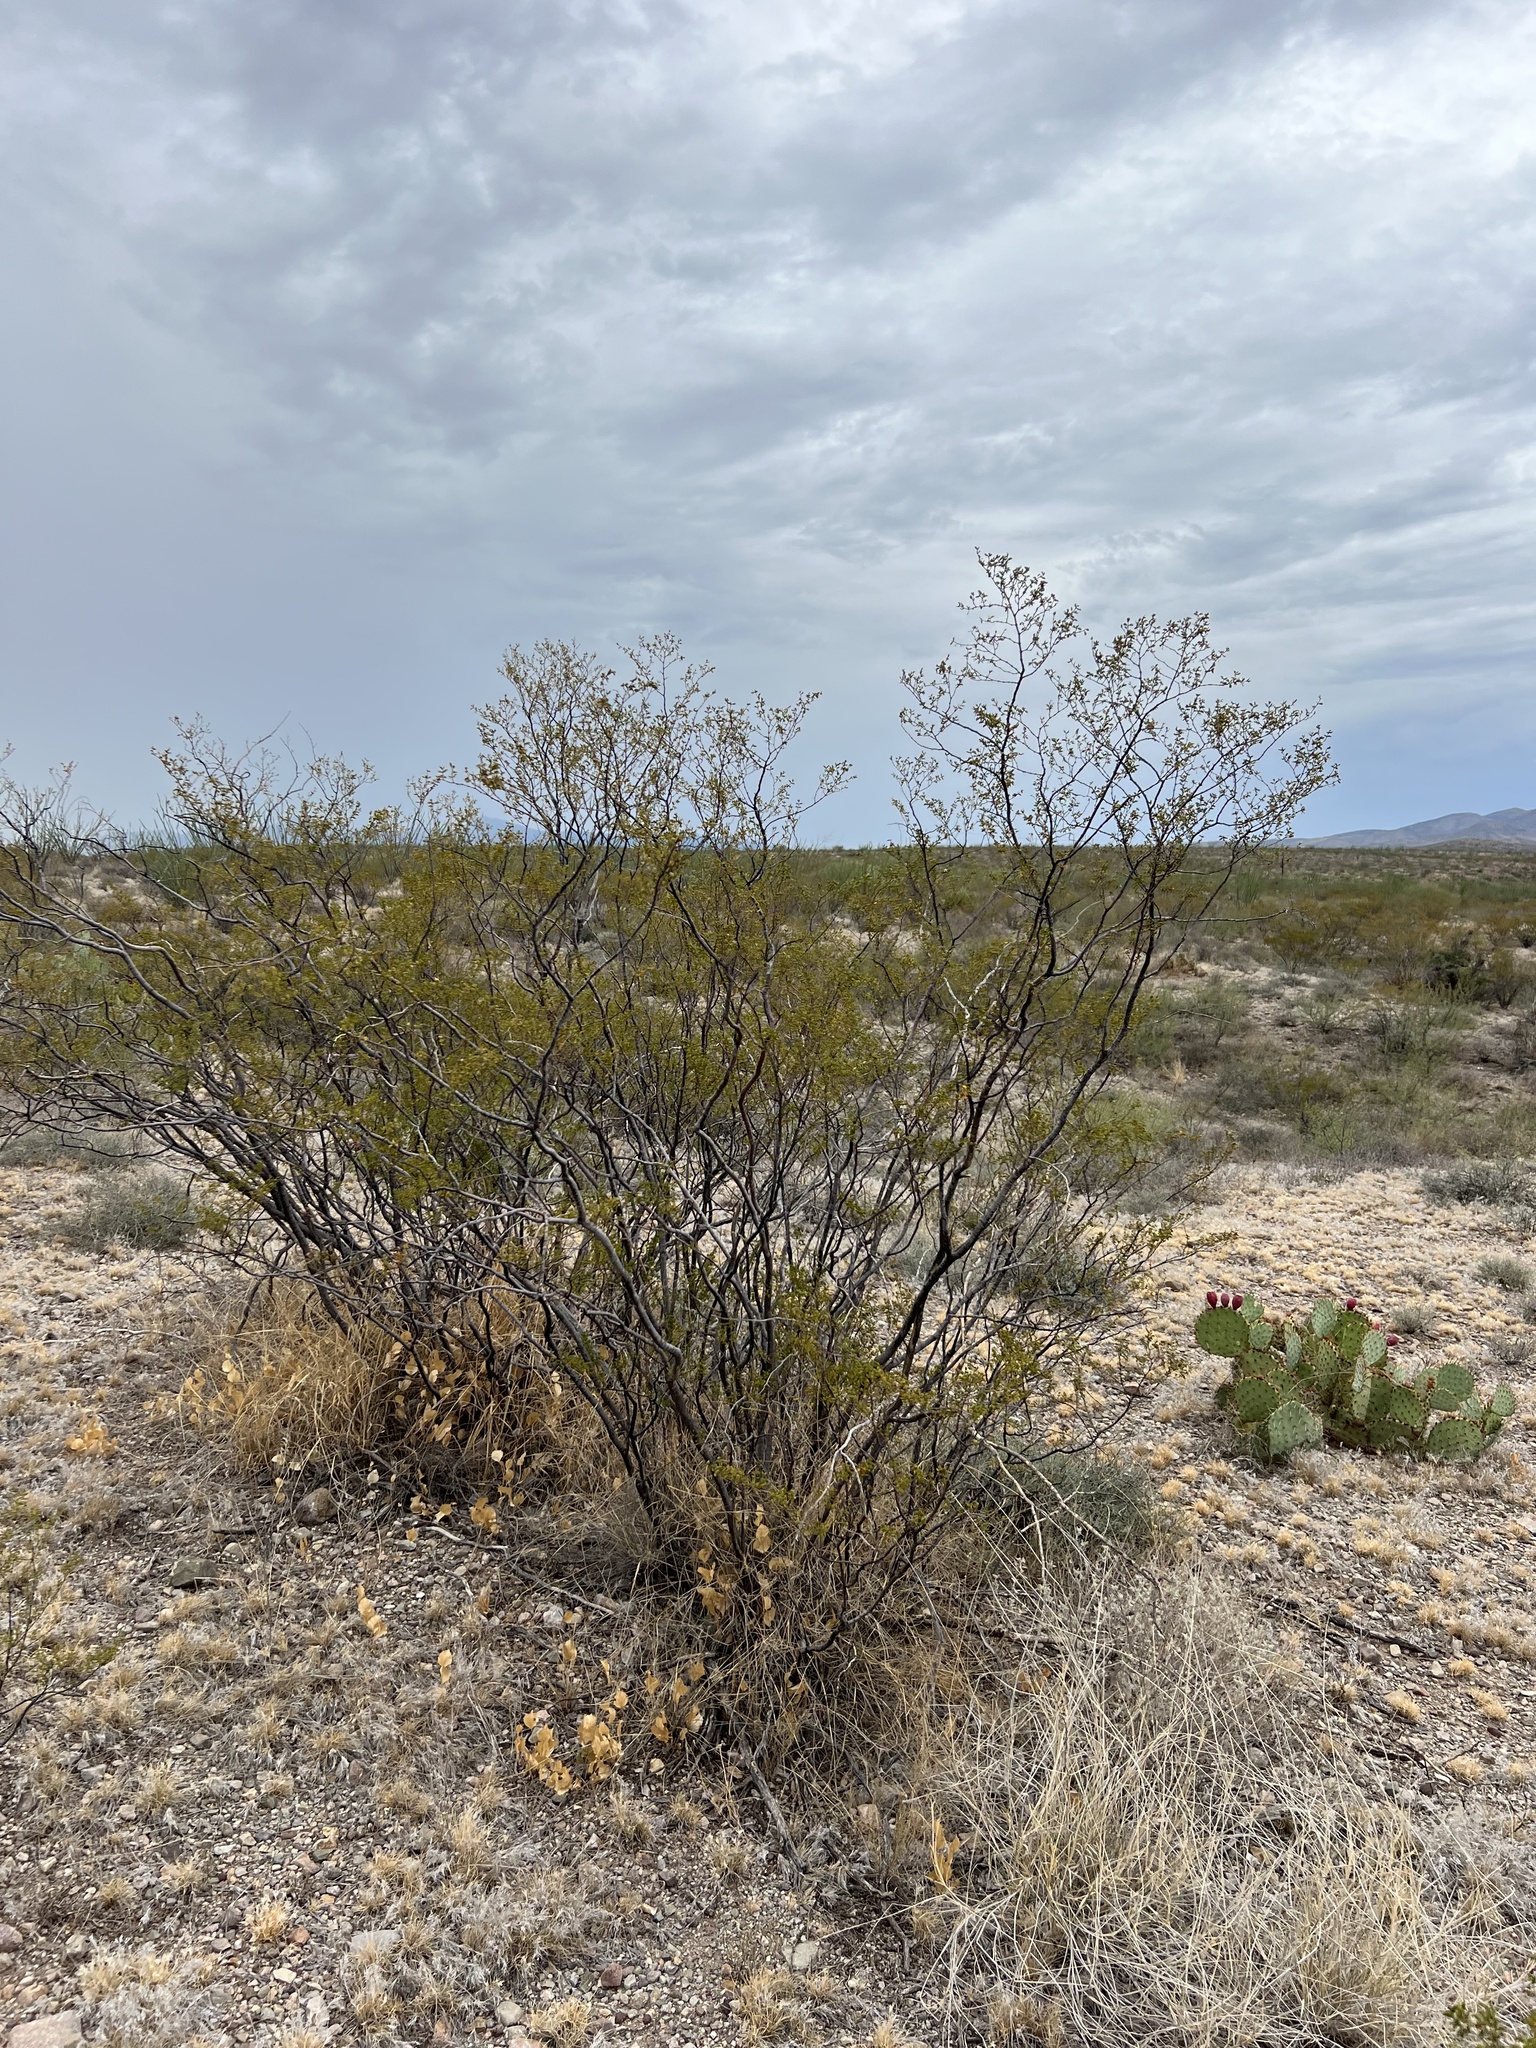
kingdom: Plantae
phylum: Tracheophyta
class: Magnoliopsida
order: Zygophyllales
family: Zygophyllaceae
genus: Larrea
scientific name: Larrea tridentata
